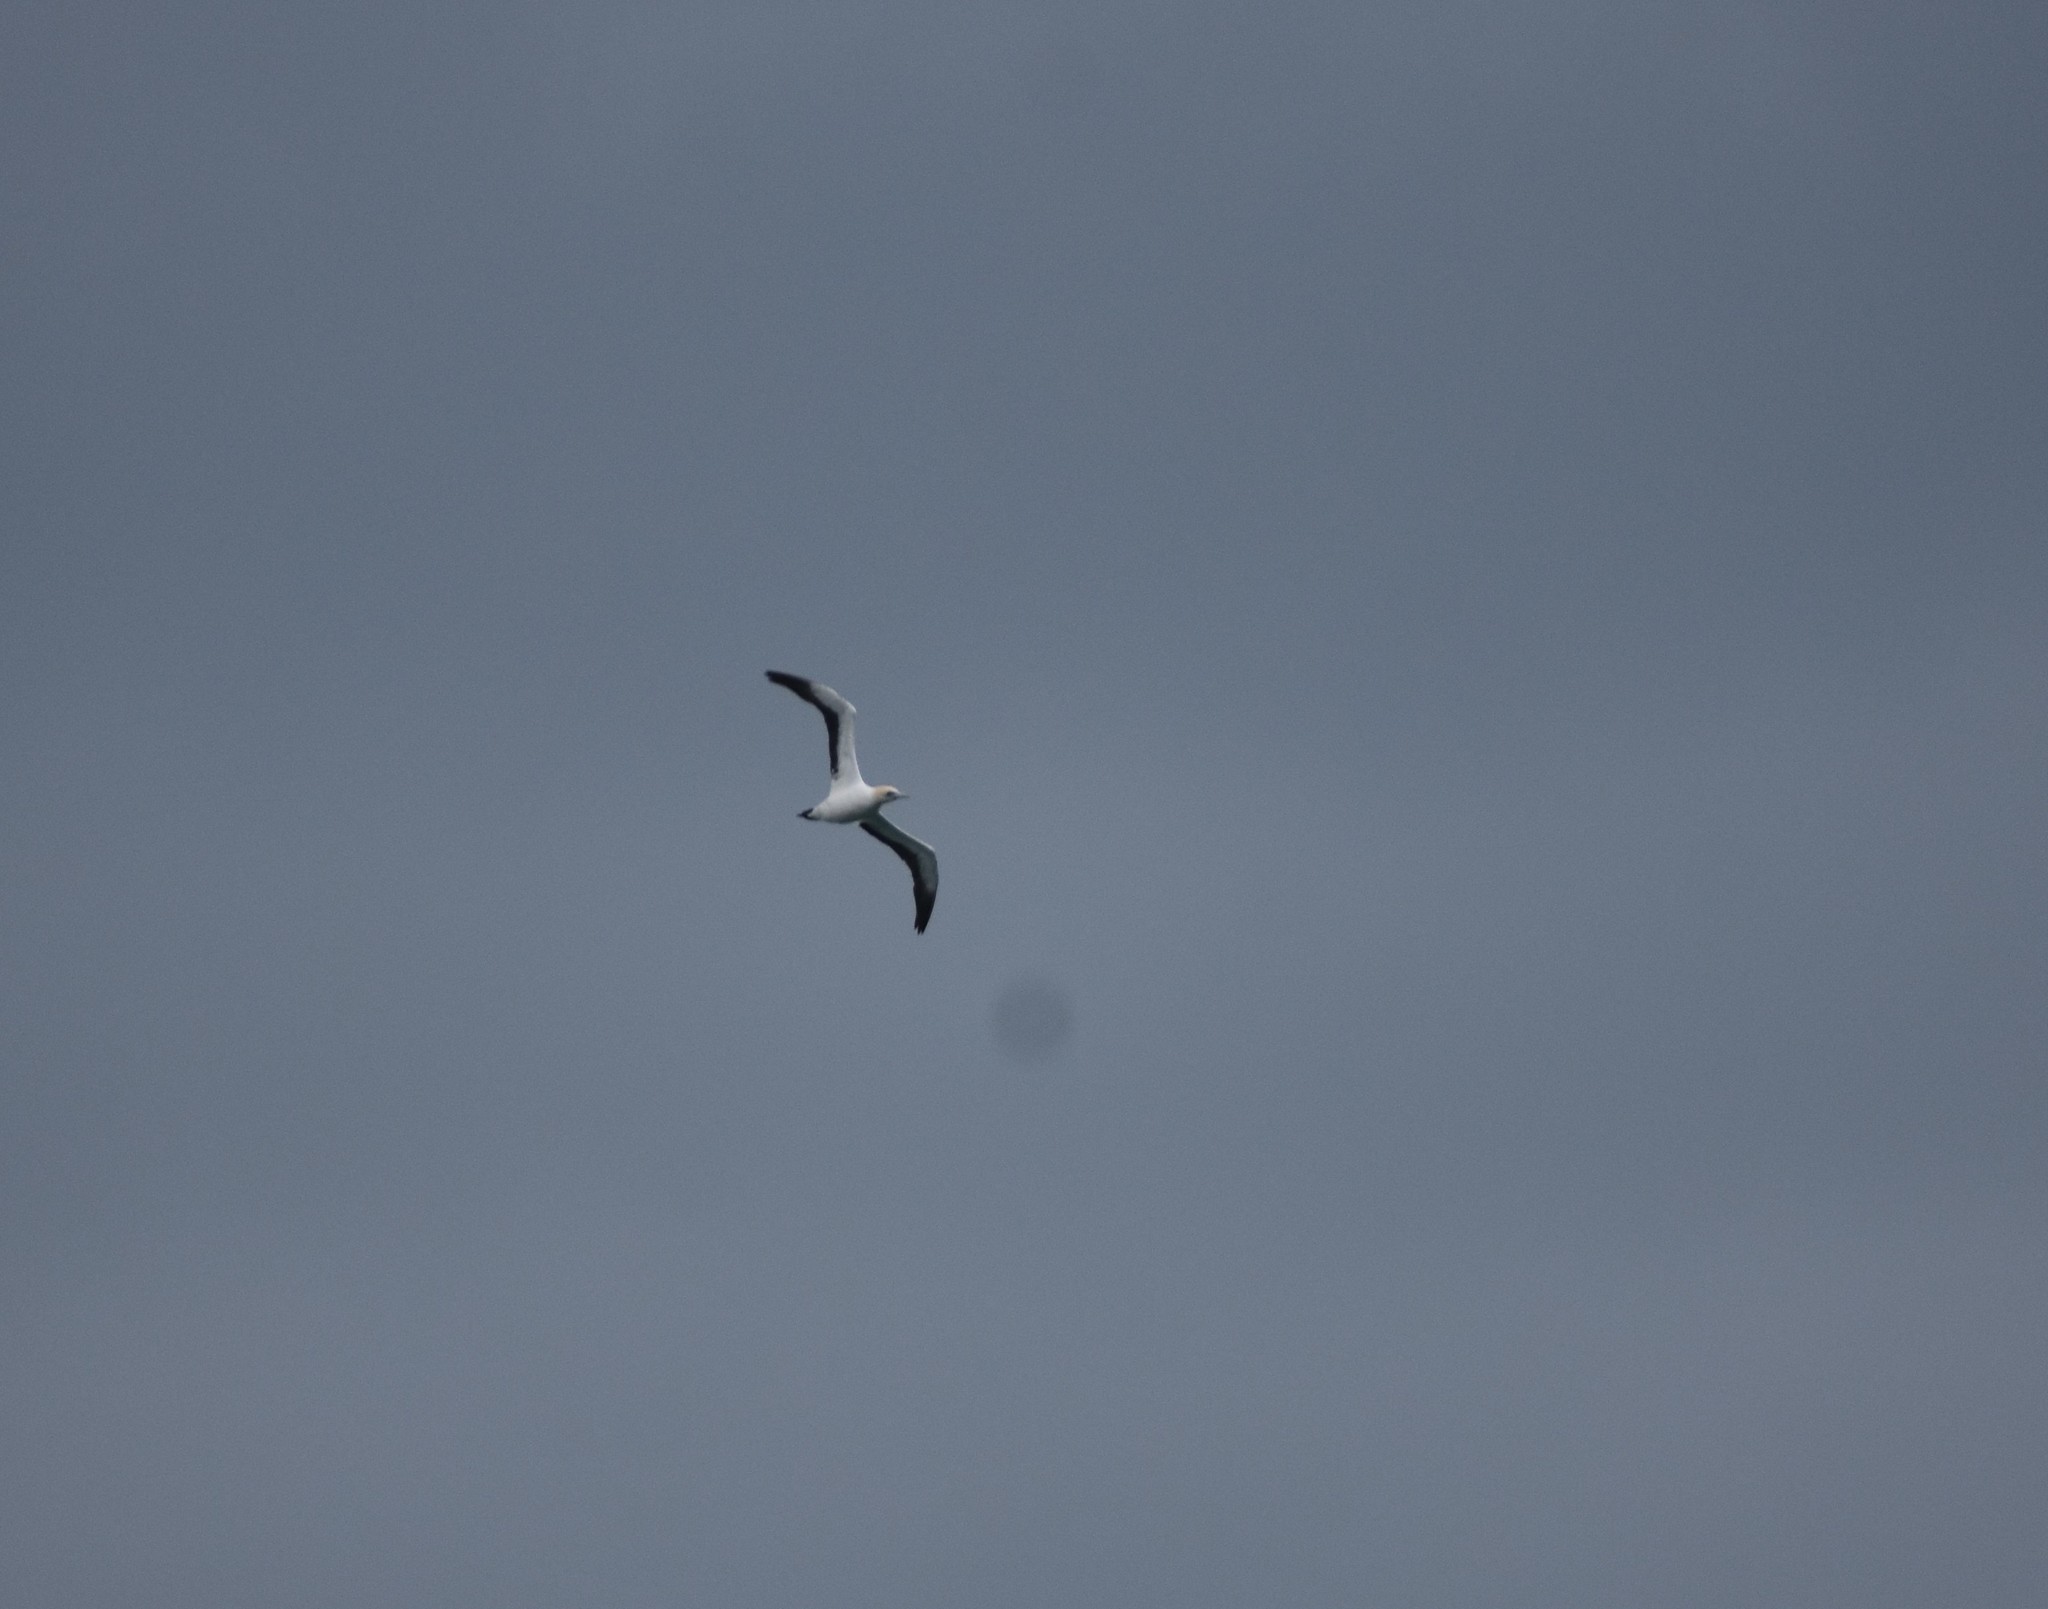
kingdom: Animalia
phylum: Chordata
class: Aves
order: Suliformes
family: Sulidae
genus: Morus
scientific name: Morus capensis
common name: Cape gannet
